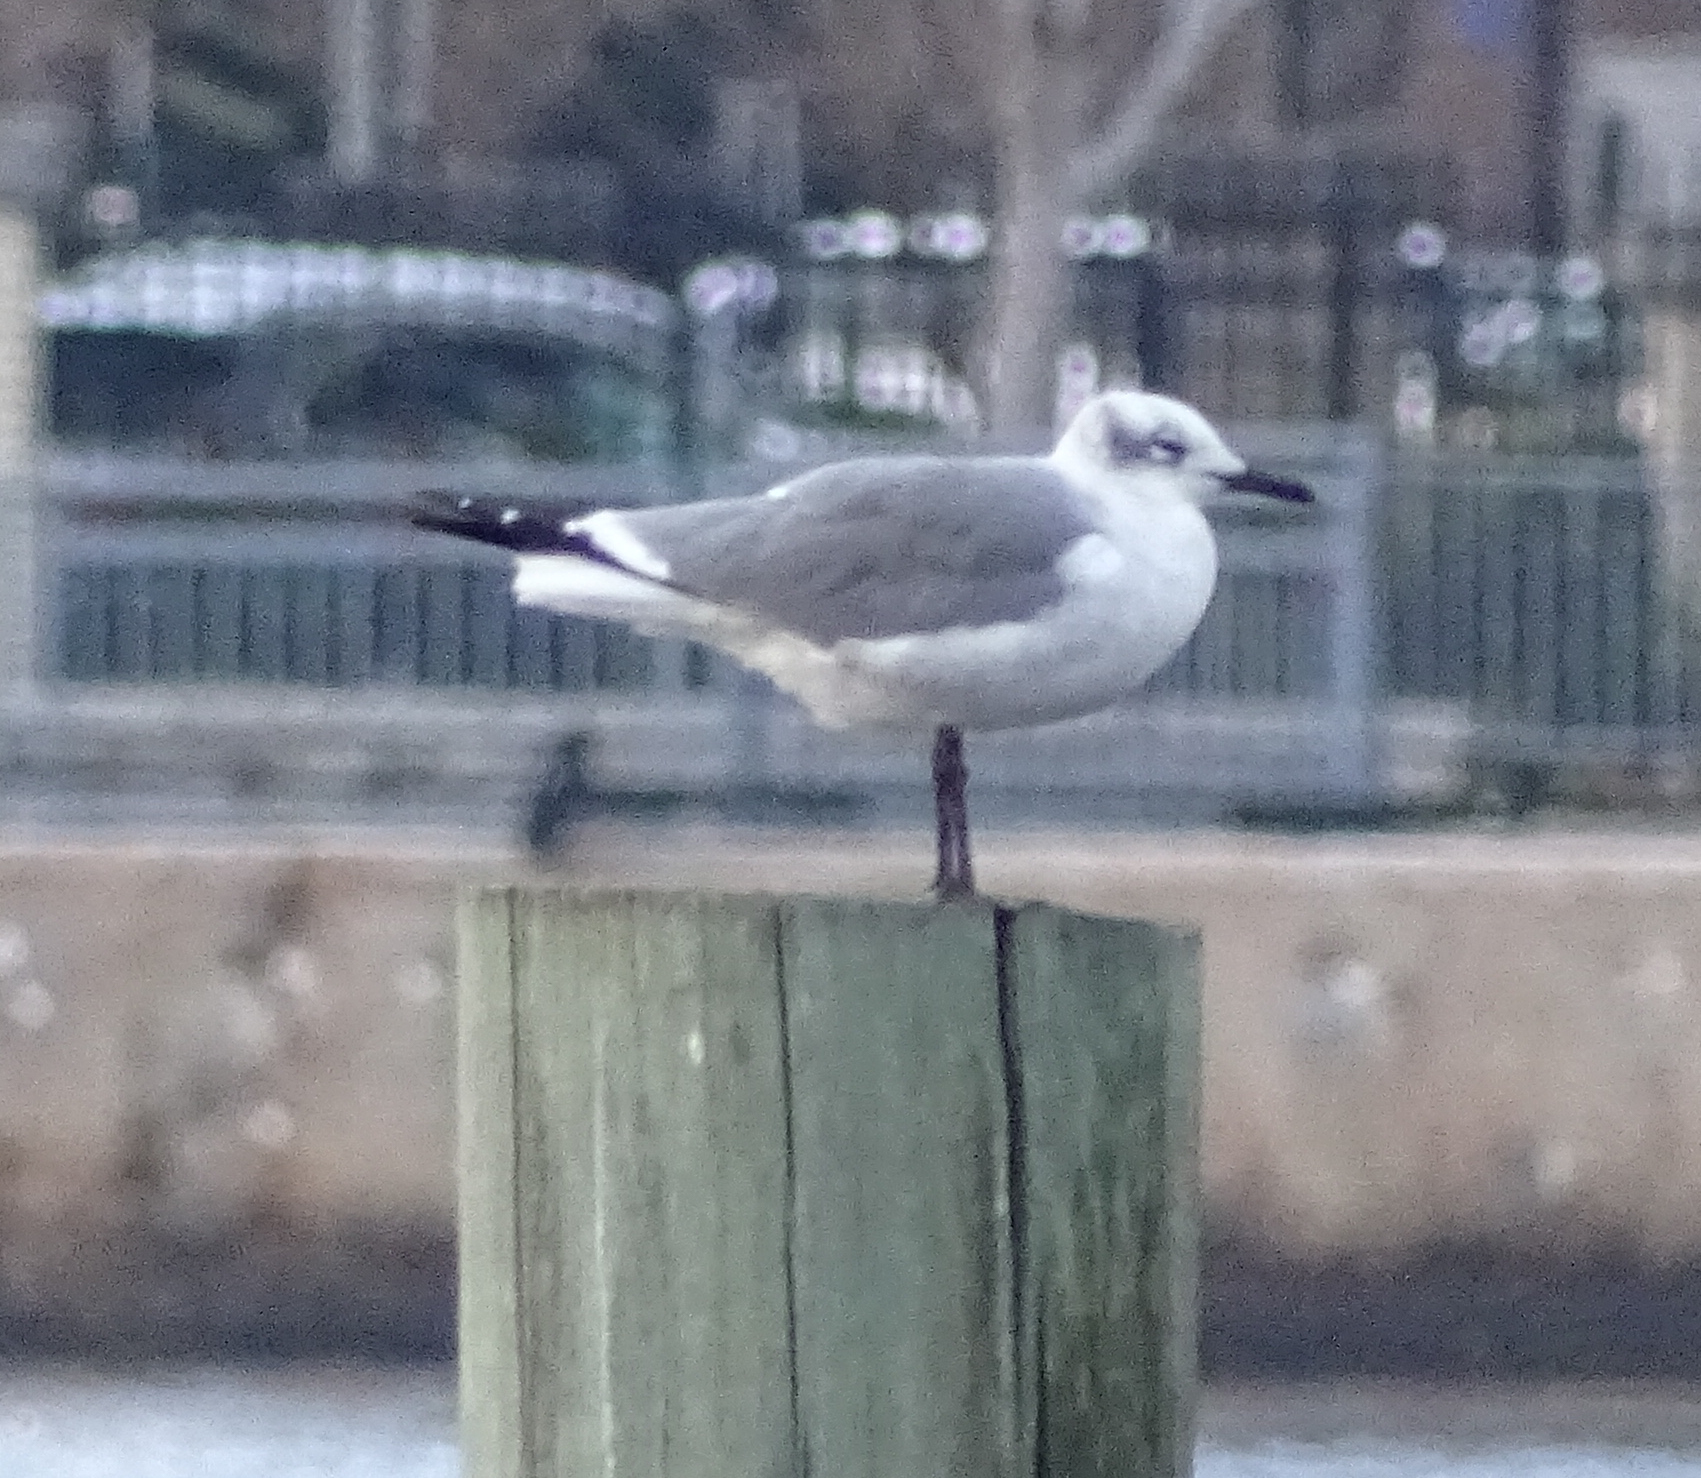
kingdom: Animalia
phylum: Chordata
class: Aves
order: Charadriiformes
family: Laridae
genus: Leucophaeus
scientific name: Leucophaeus atricilla
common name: Laughing gull
